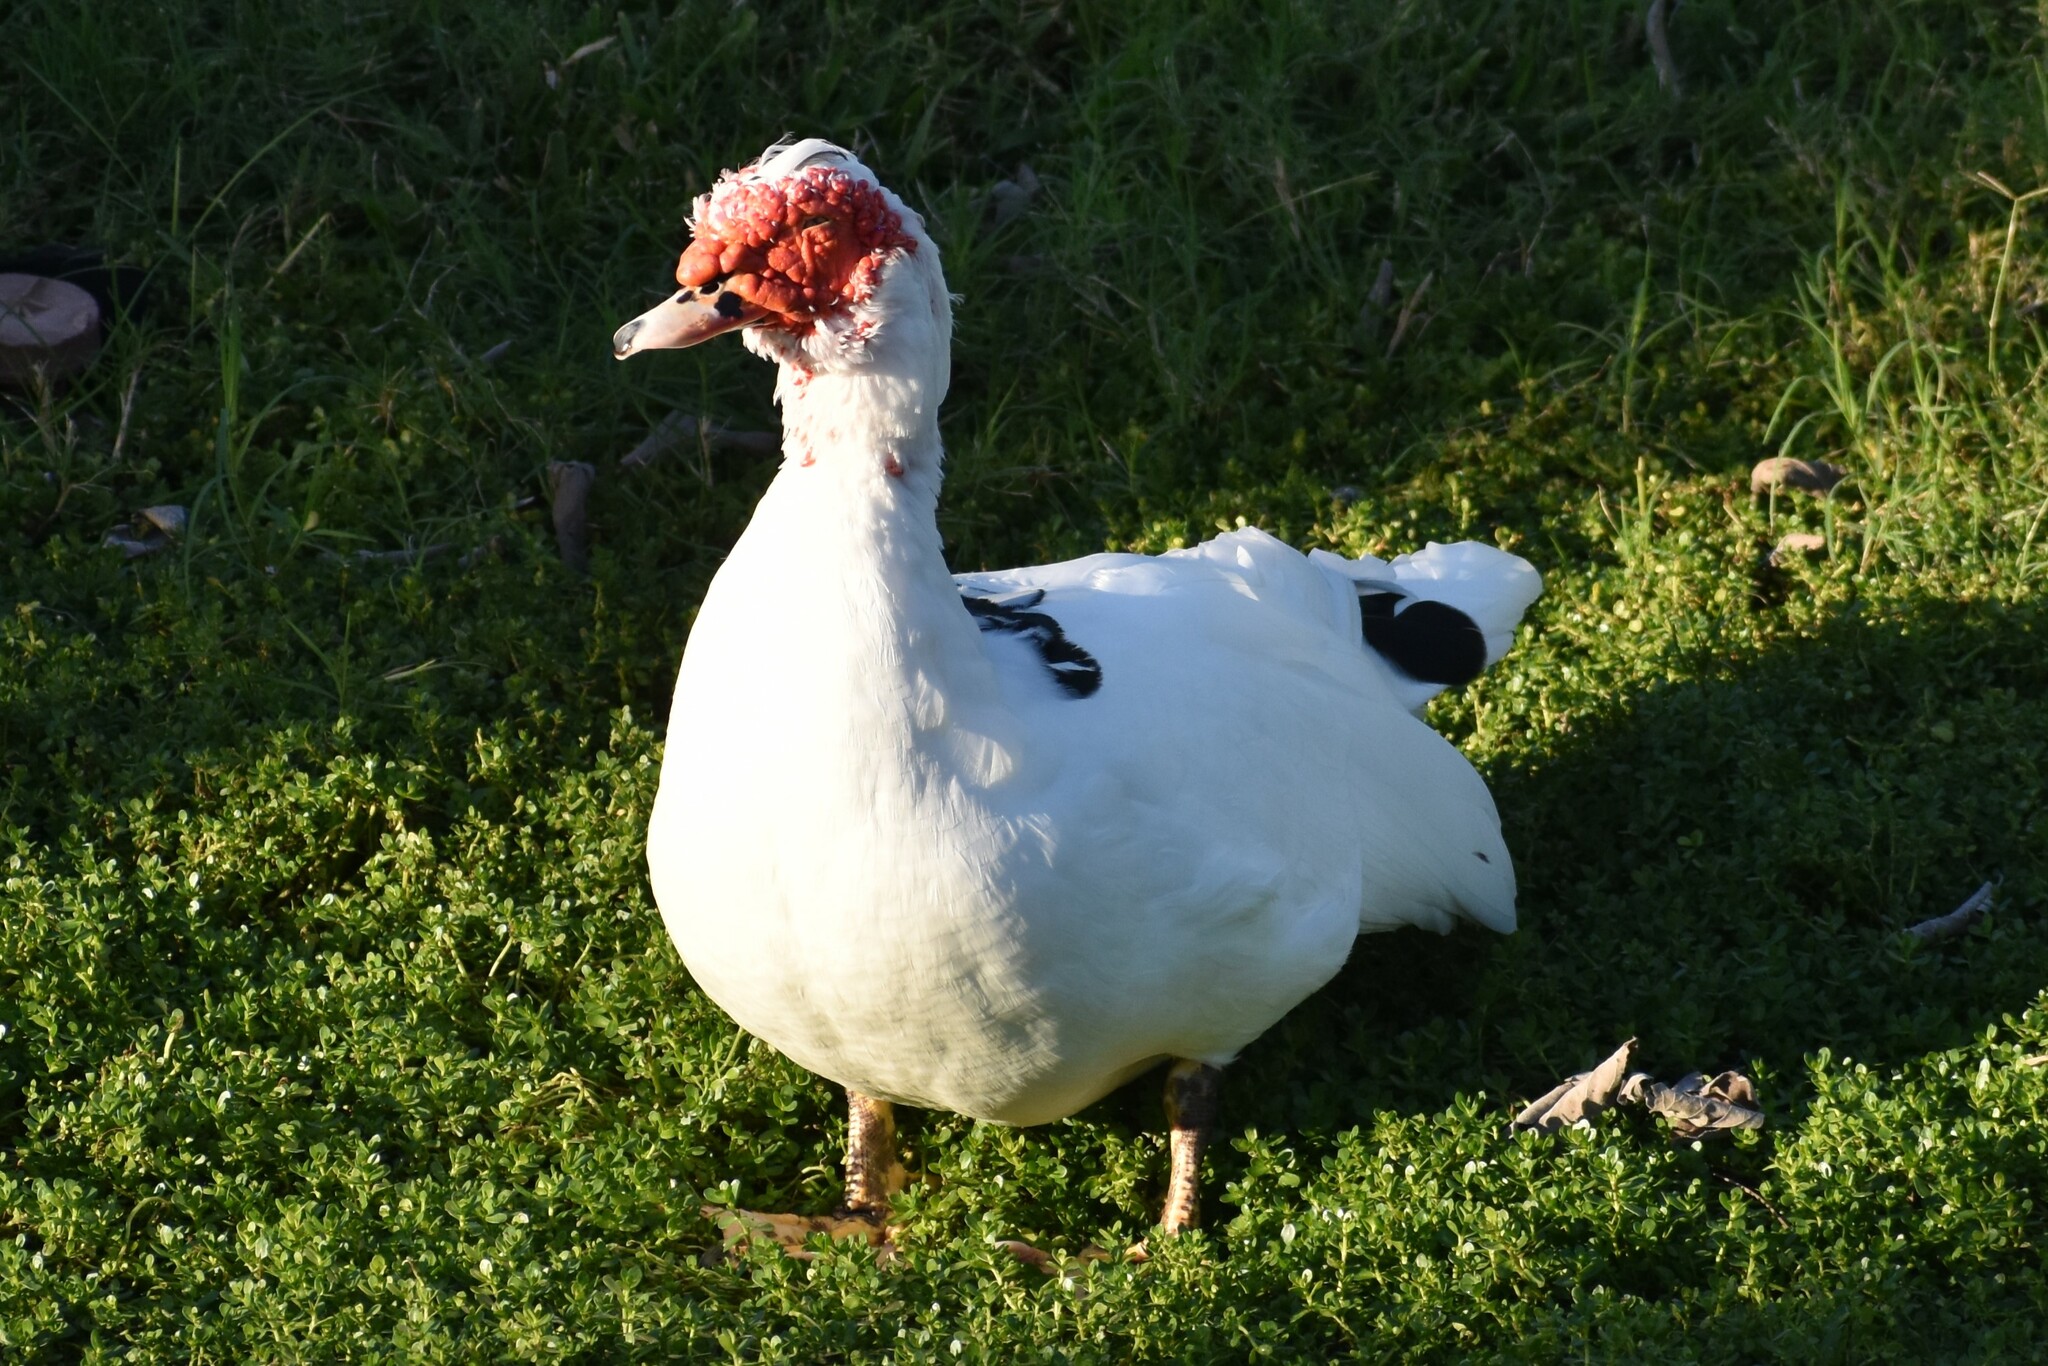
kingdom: Animalia
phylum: Chordata
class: Aves
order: Anseriformes
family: Anatidae
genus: Cairina
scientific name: Cairina moschata
